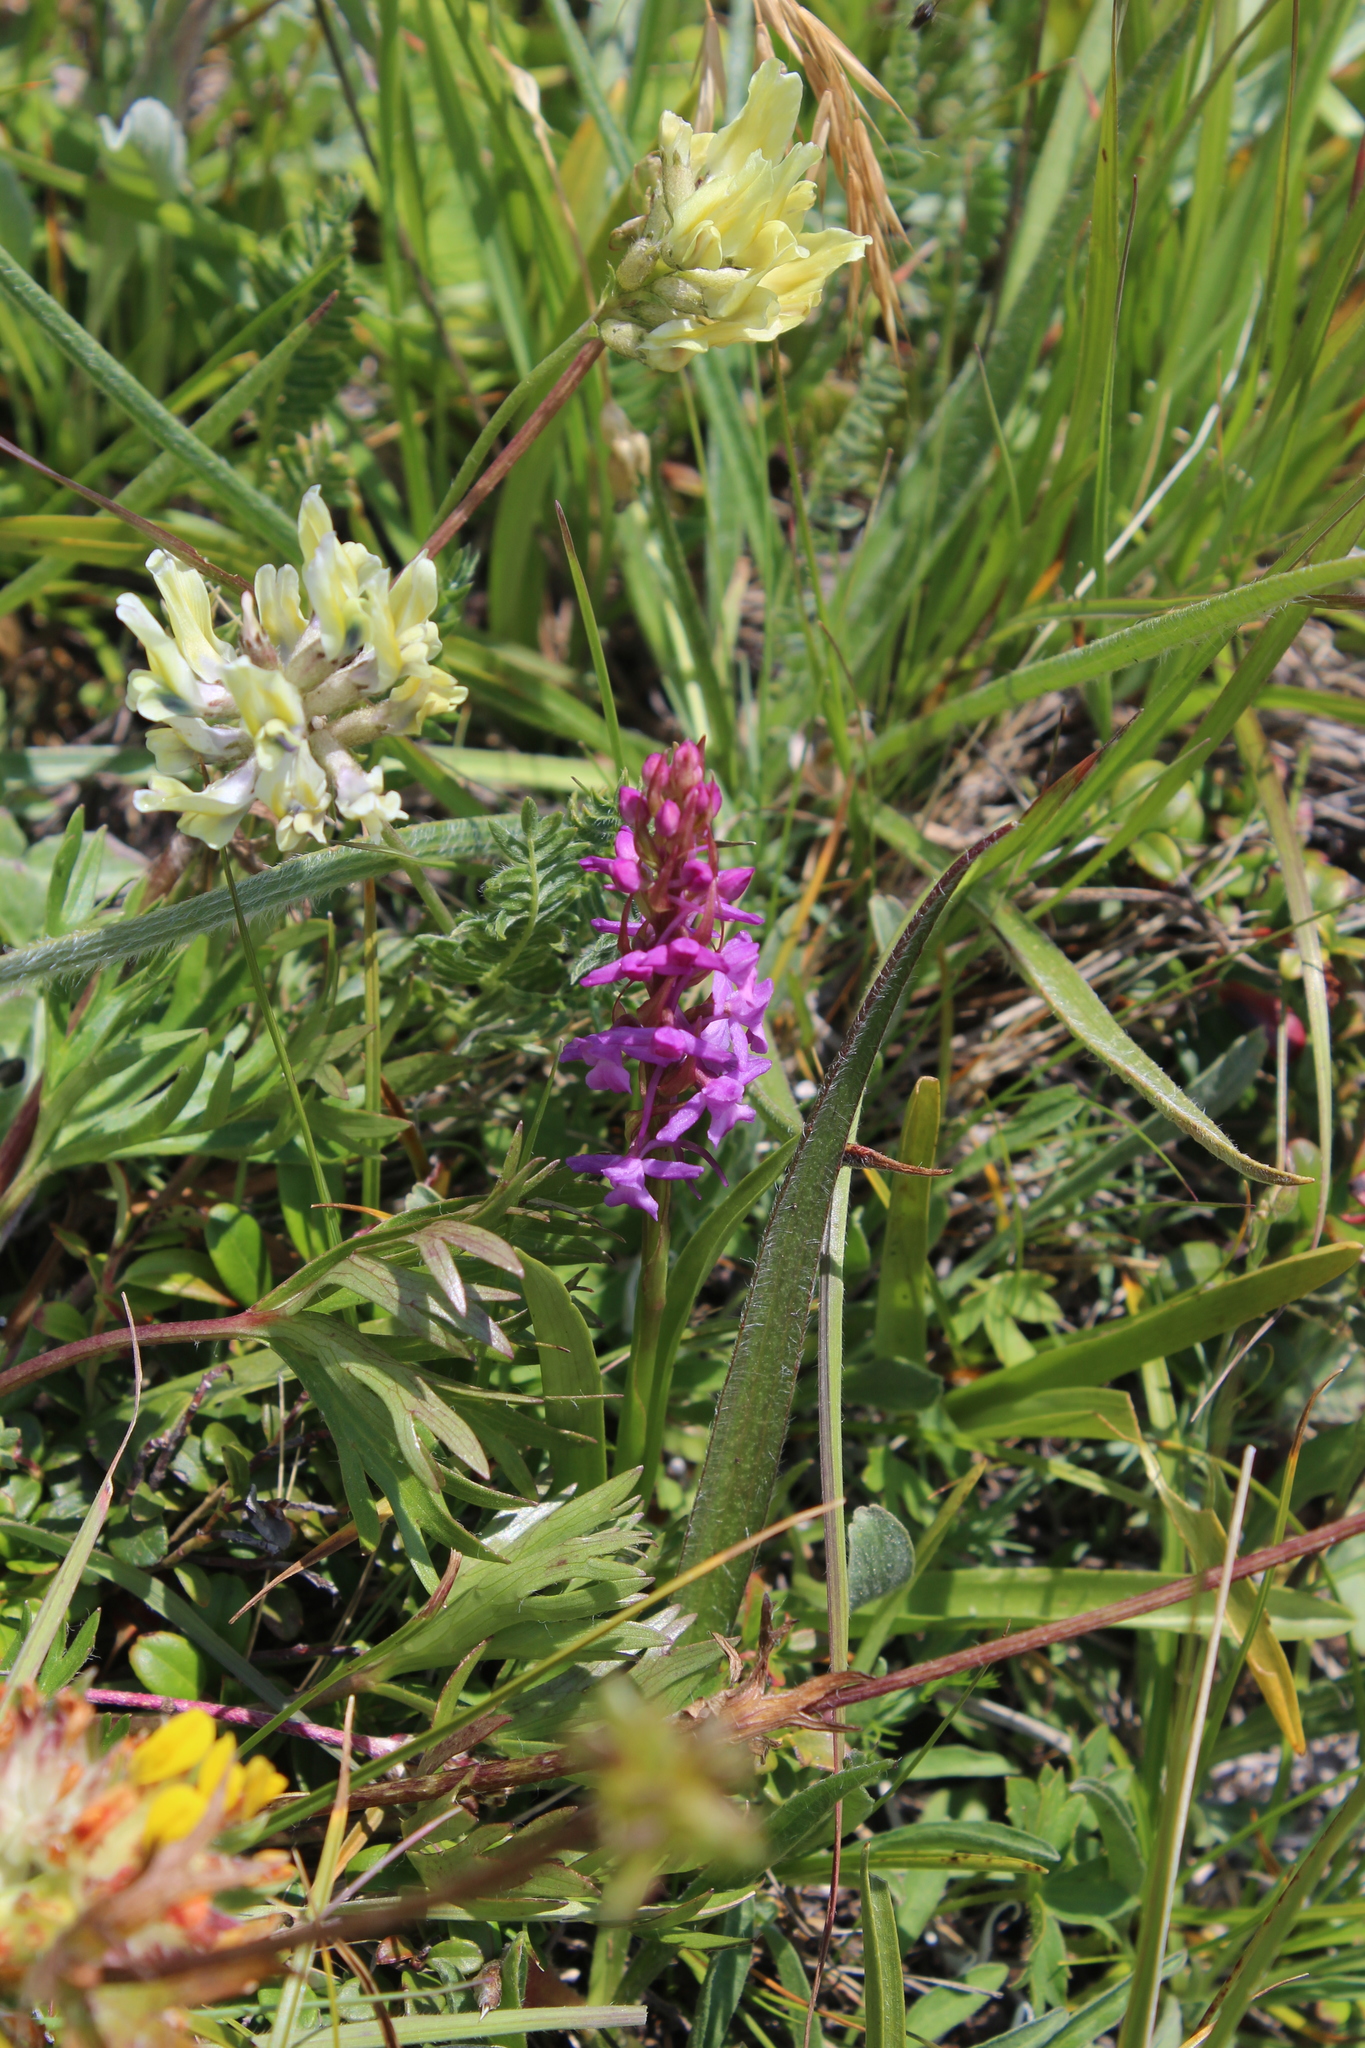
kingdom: Plantae
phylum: Tracheophyta
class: Liliopsida
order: Asparagales
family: Orchidaceae
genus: Gymnadenia
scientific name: Gymnadenia conopsea
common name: Fragrant orchid
